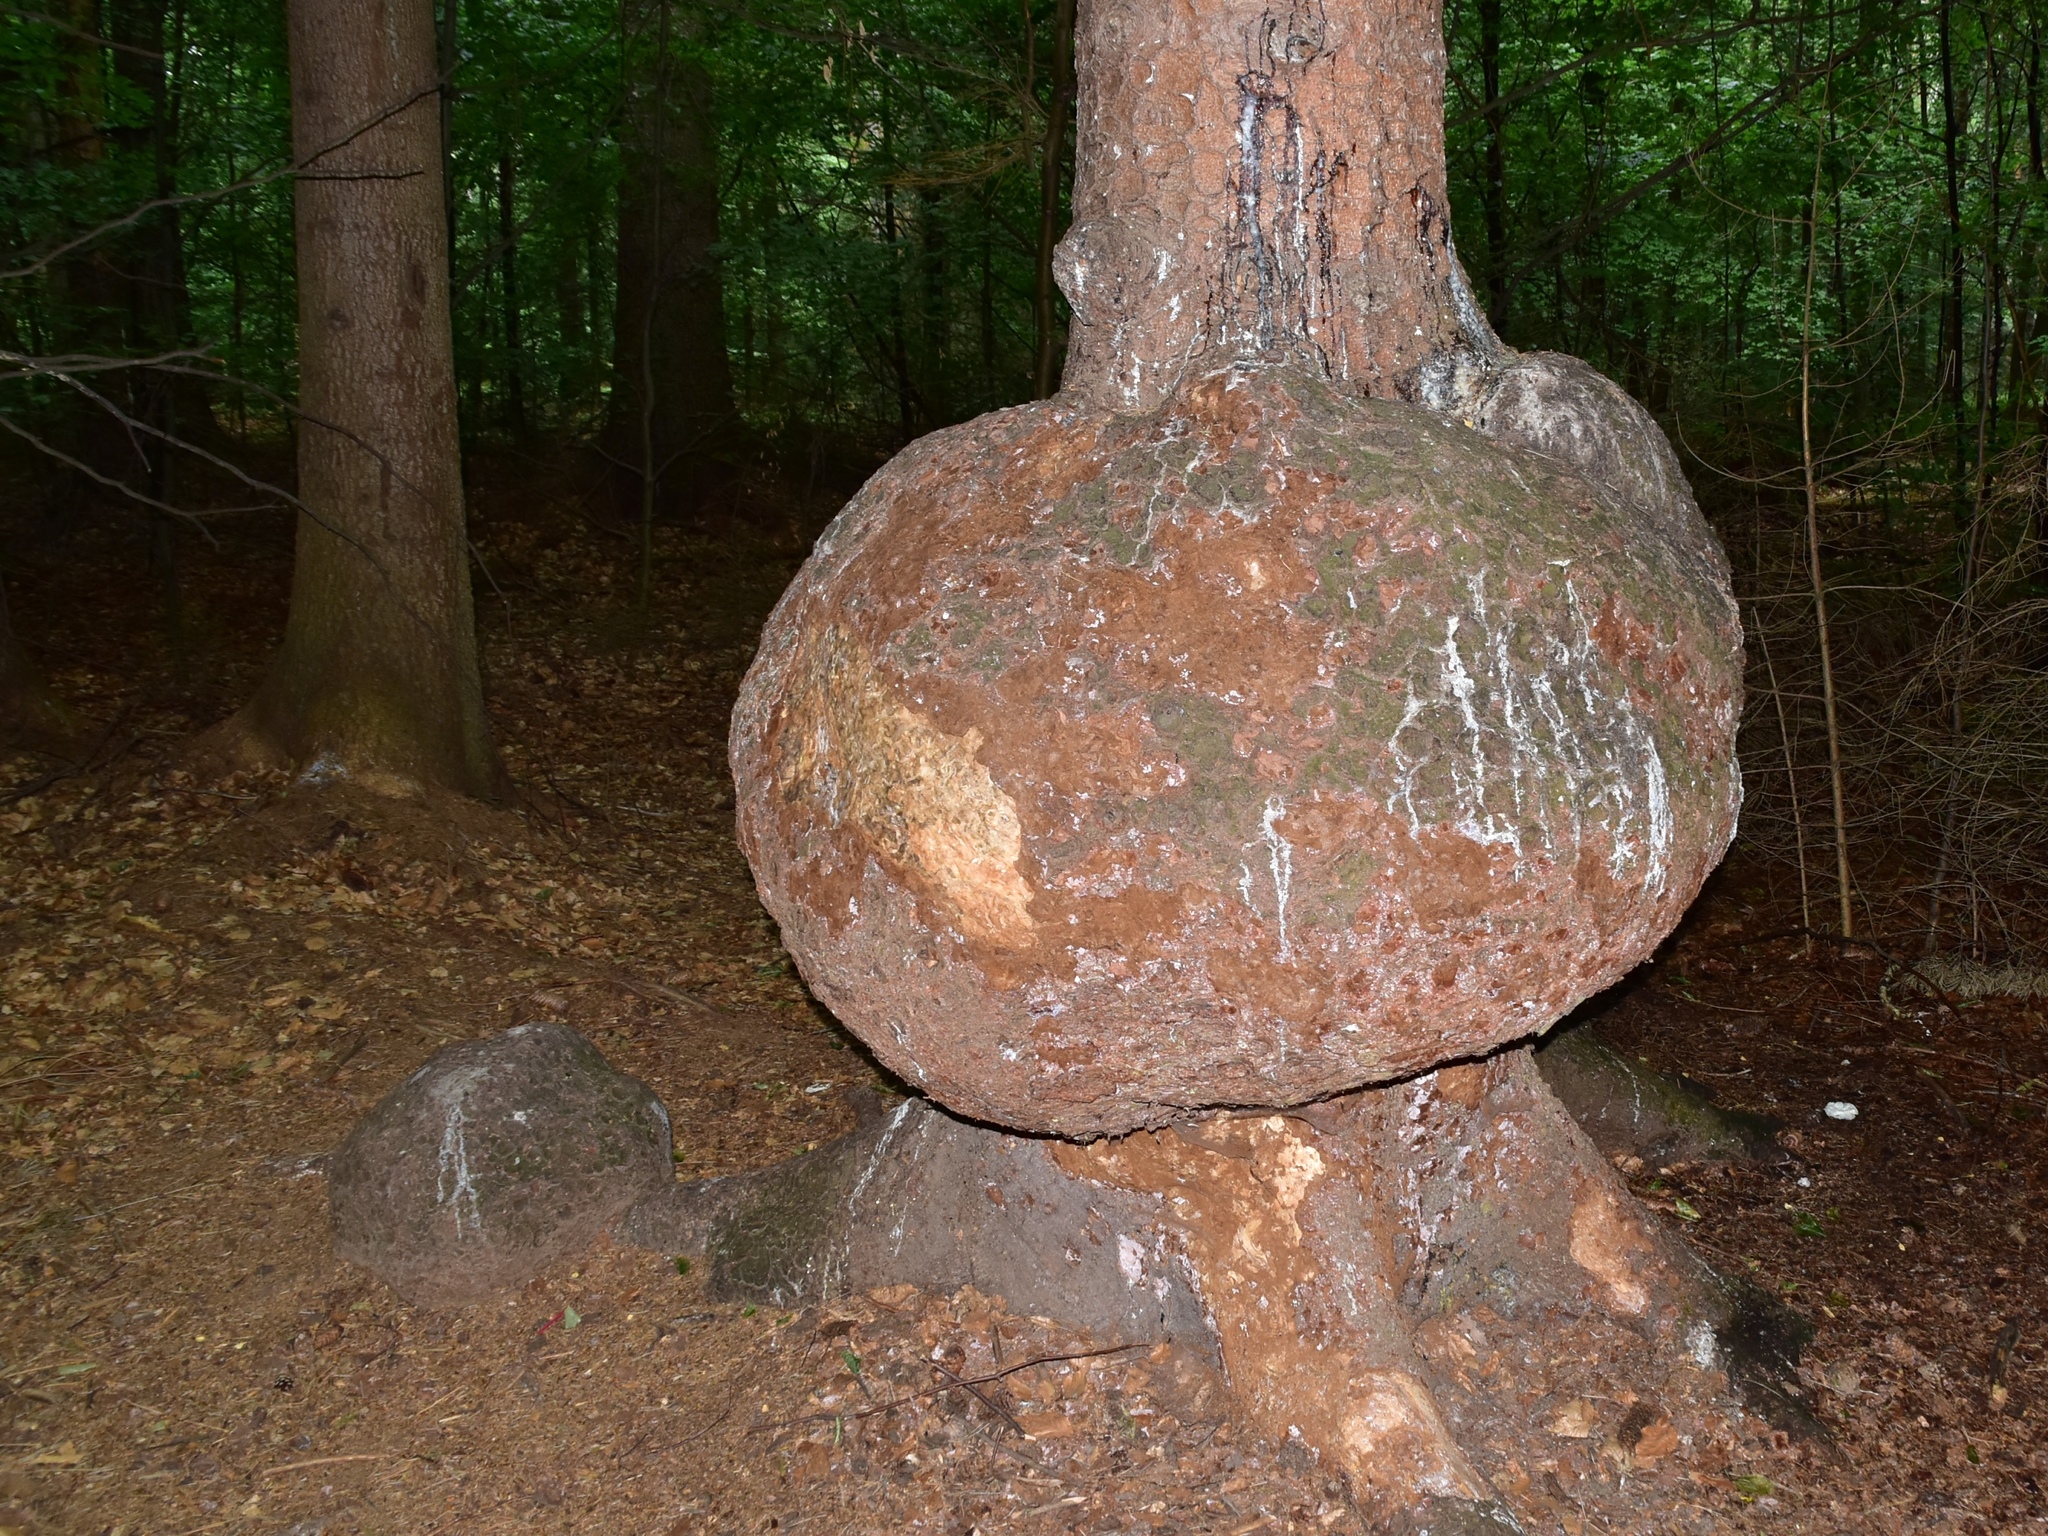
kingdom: Bacteria
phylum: Proteobacteria
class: Alphaproteobacteria
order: Rhizobiales
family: Rhizobiaceae
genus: Rhizobium
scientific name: Rhizobium Agrobacterium radiobacter
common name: Bacterial crown gall
